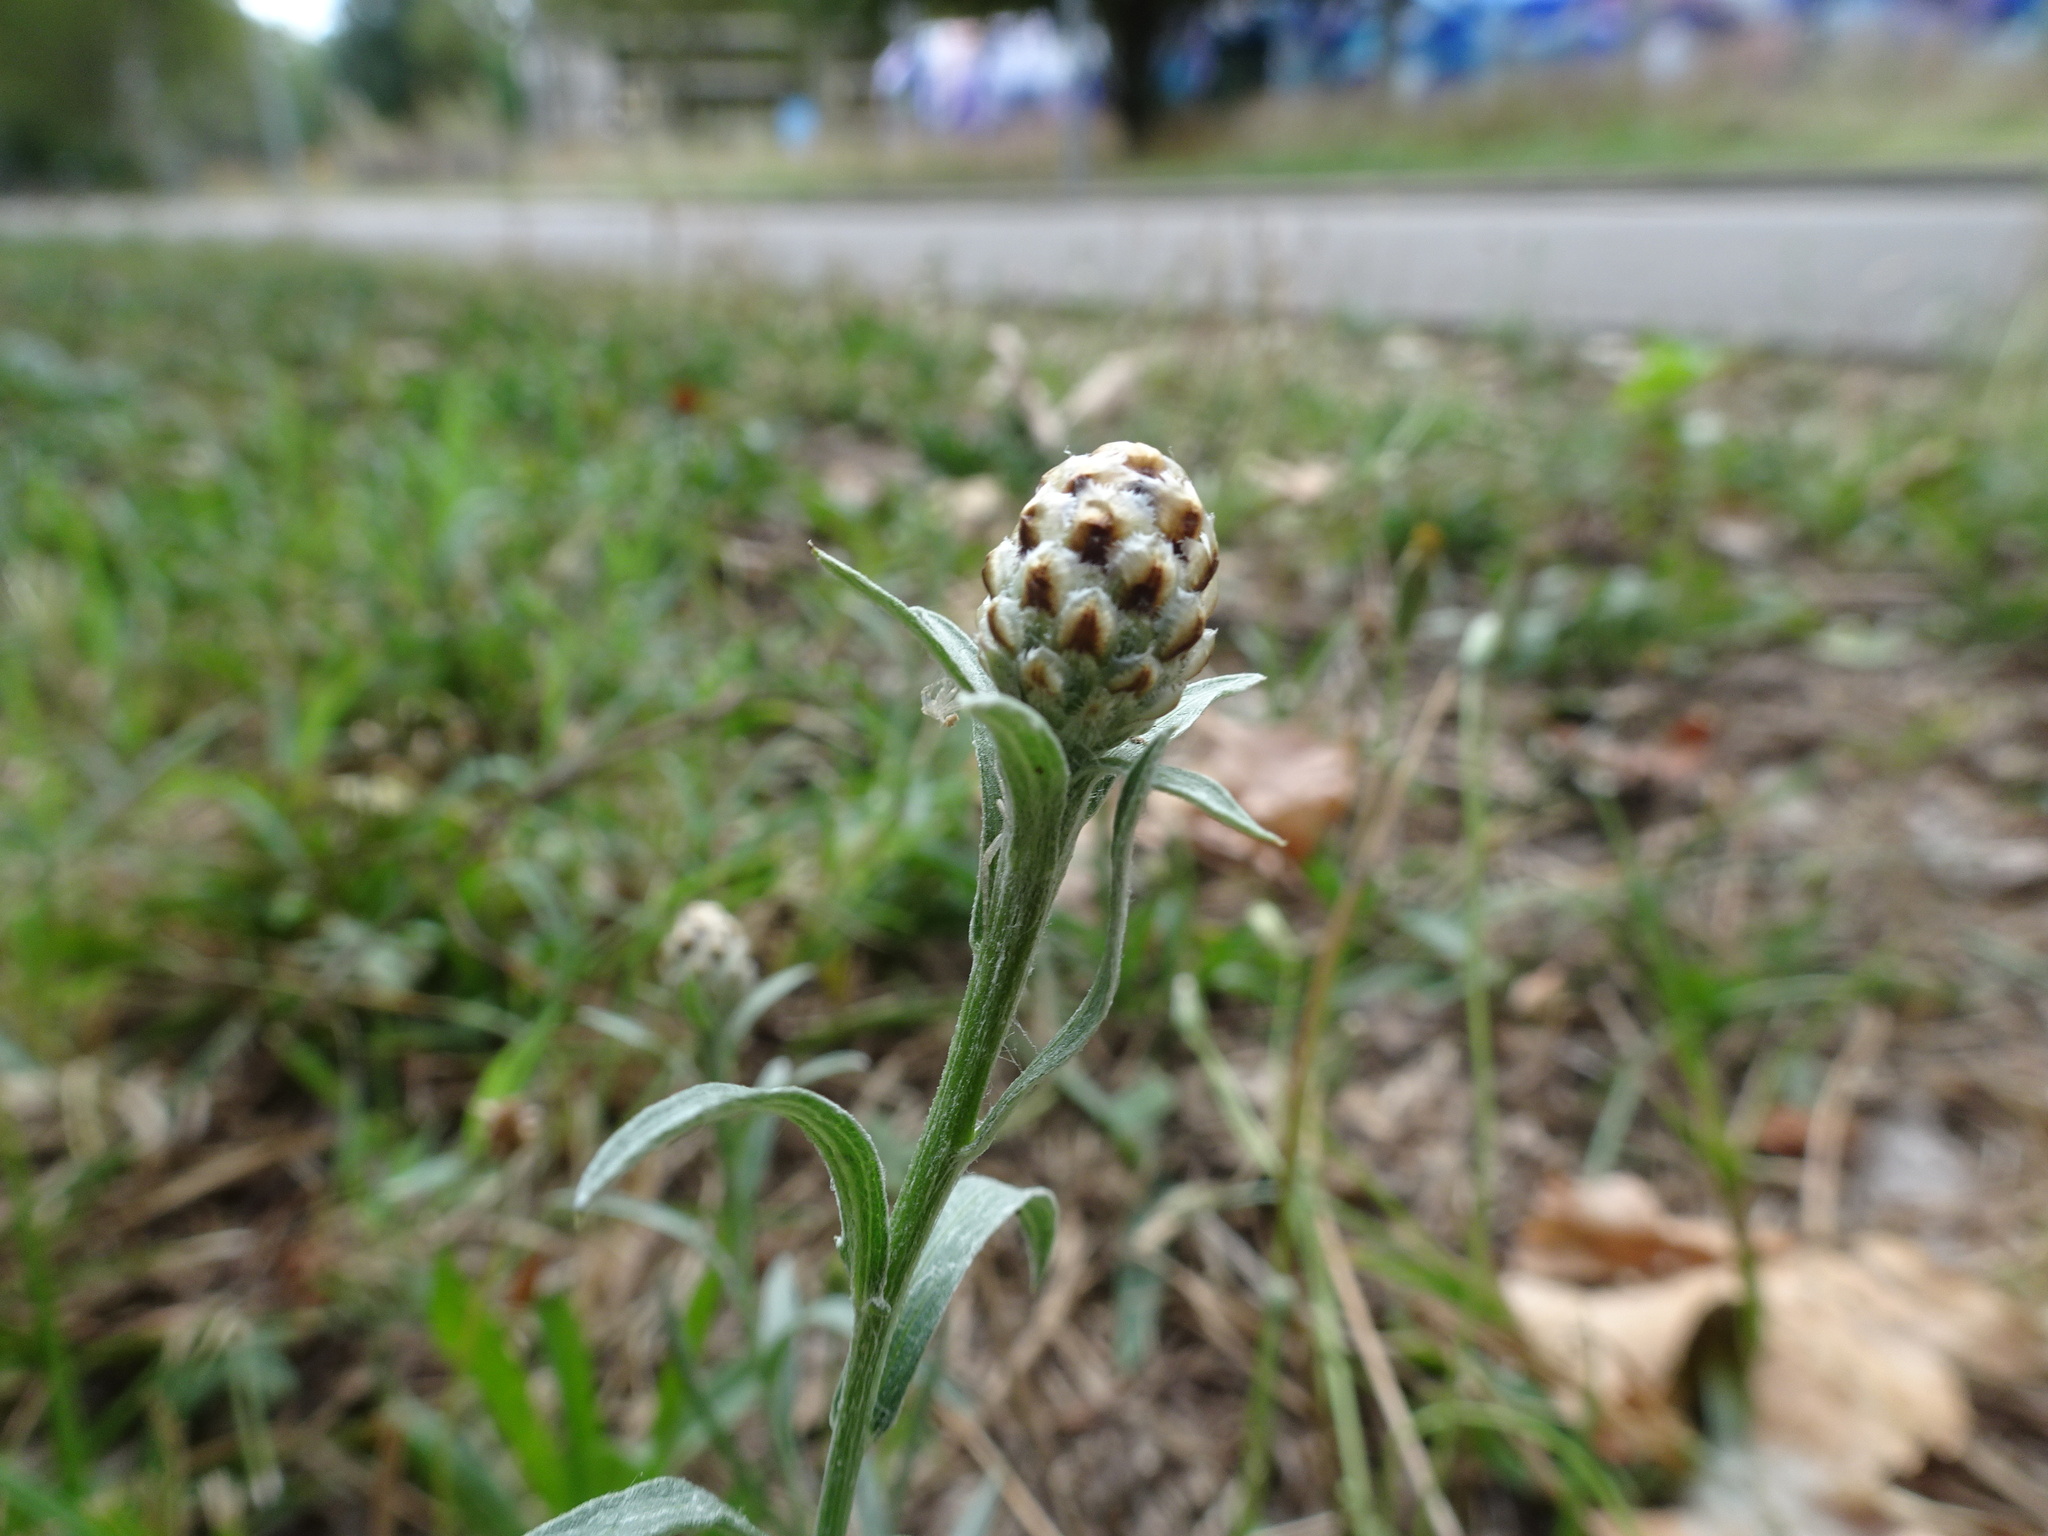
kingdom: Plantae
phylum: Tracheophyta
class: Magnoliopsida
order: Asterales
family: Asteraceae
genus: Centaurea
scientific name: Centaurea jacea
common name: Brown knapweed
